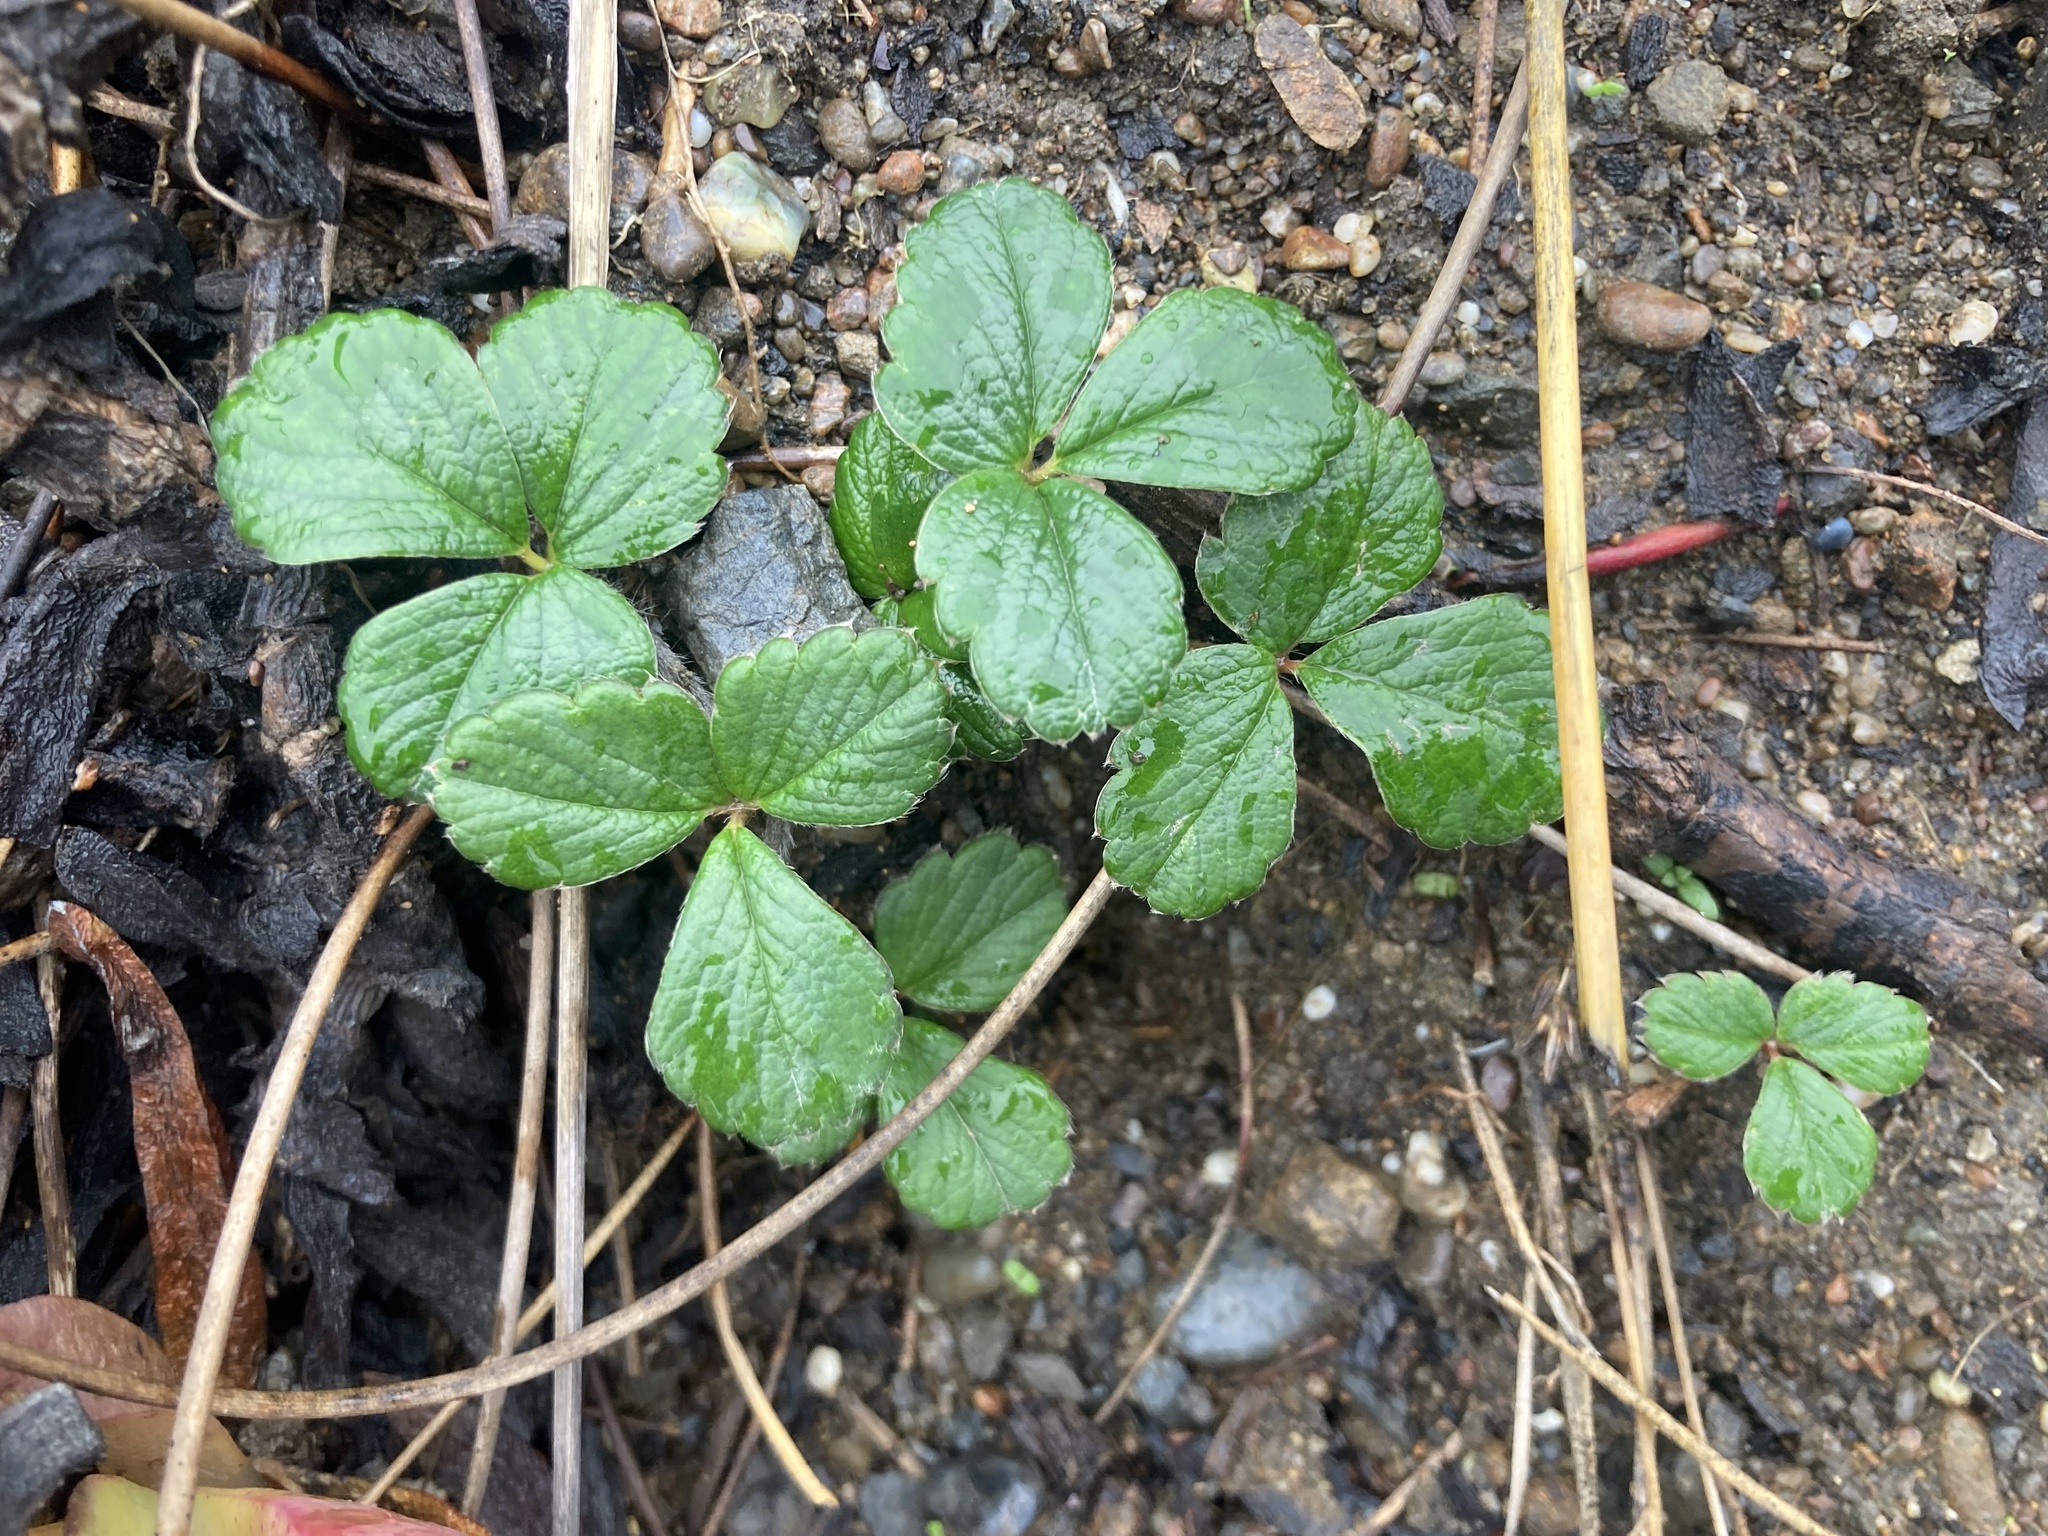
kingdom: Plantae
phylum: Tracheophyta
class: Magnoliopsida
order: Rosales
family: Rosaceae
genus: Fragaria
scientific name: Fragaria chiloensis
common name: Beach strawberry
